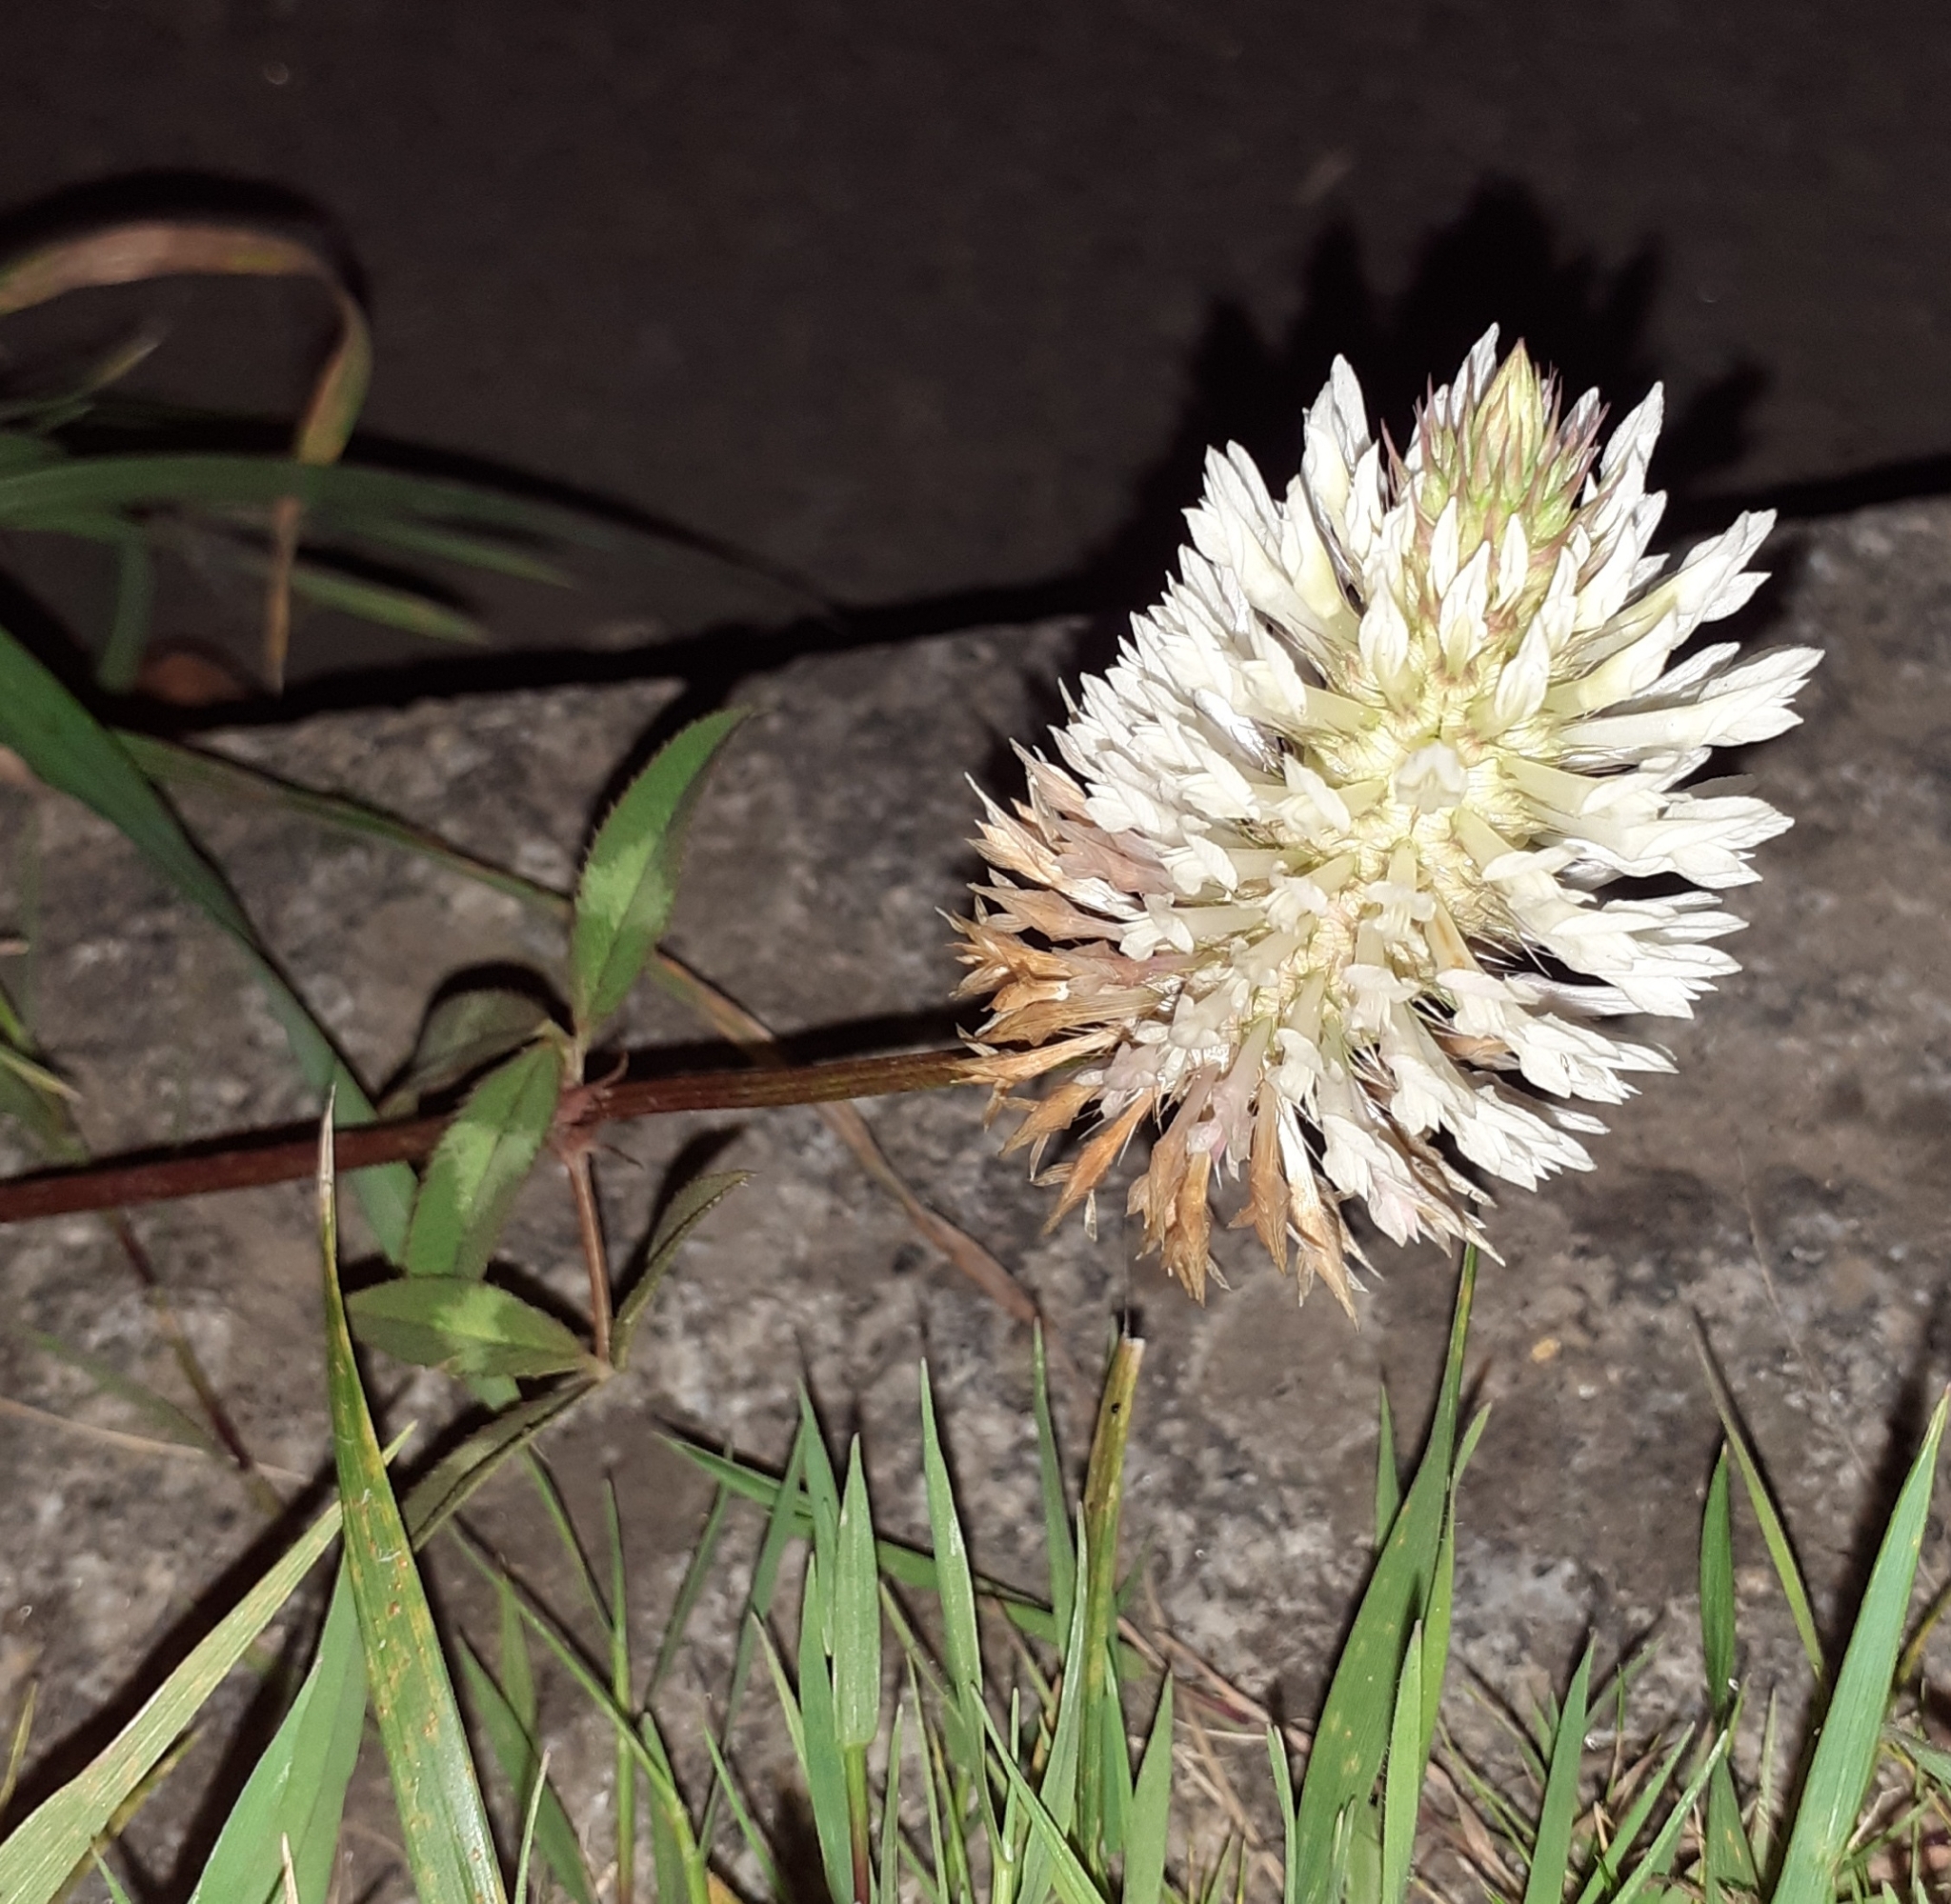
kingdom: Plantae
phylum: Tracheophyta
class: Magnoliopsida
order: Fabales
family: Fabaceae
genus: Trifolium
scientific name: Trifolium vesiculosum
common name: Arrowleaf clover
